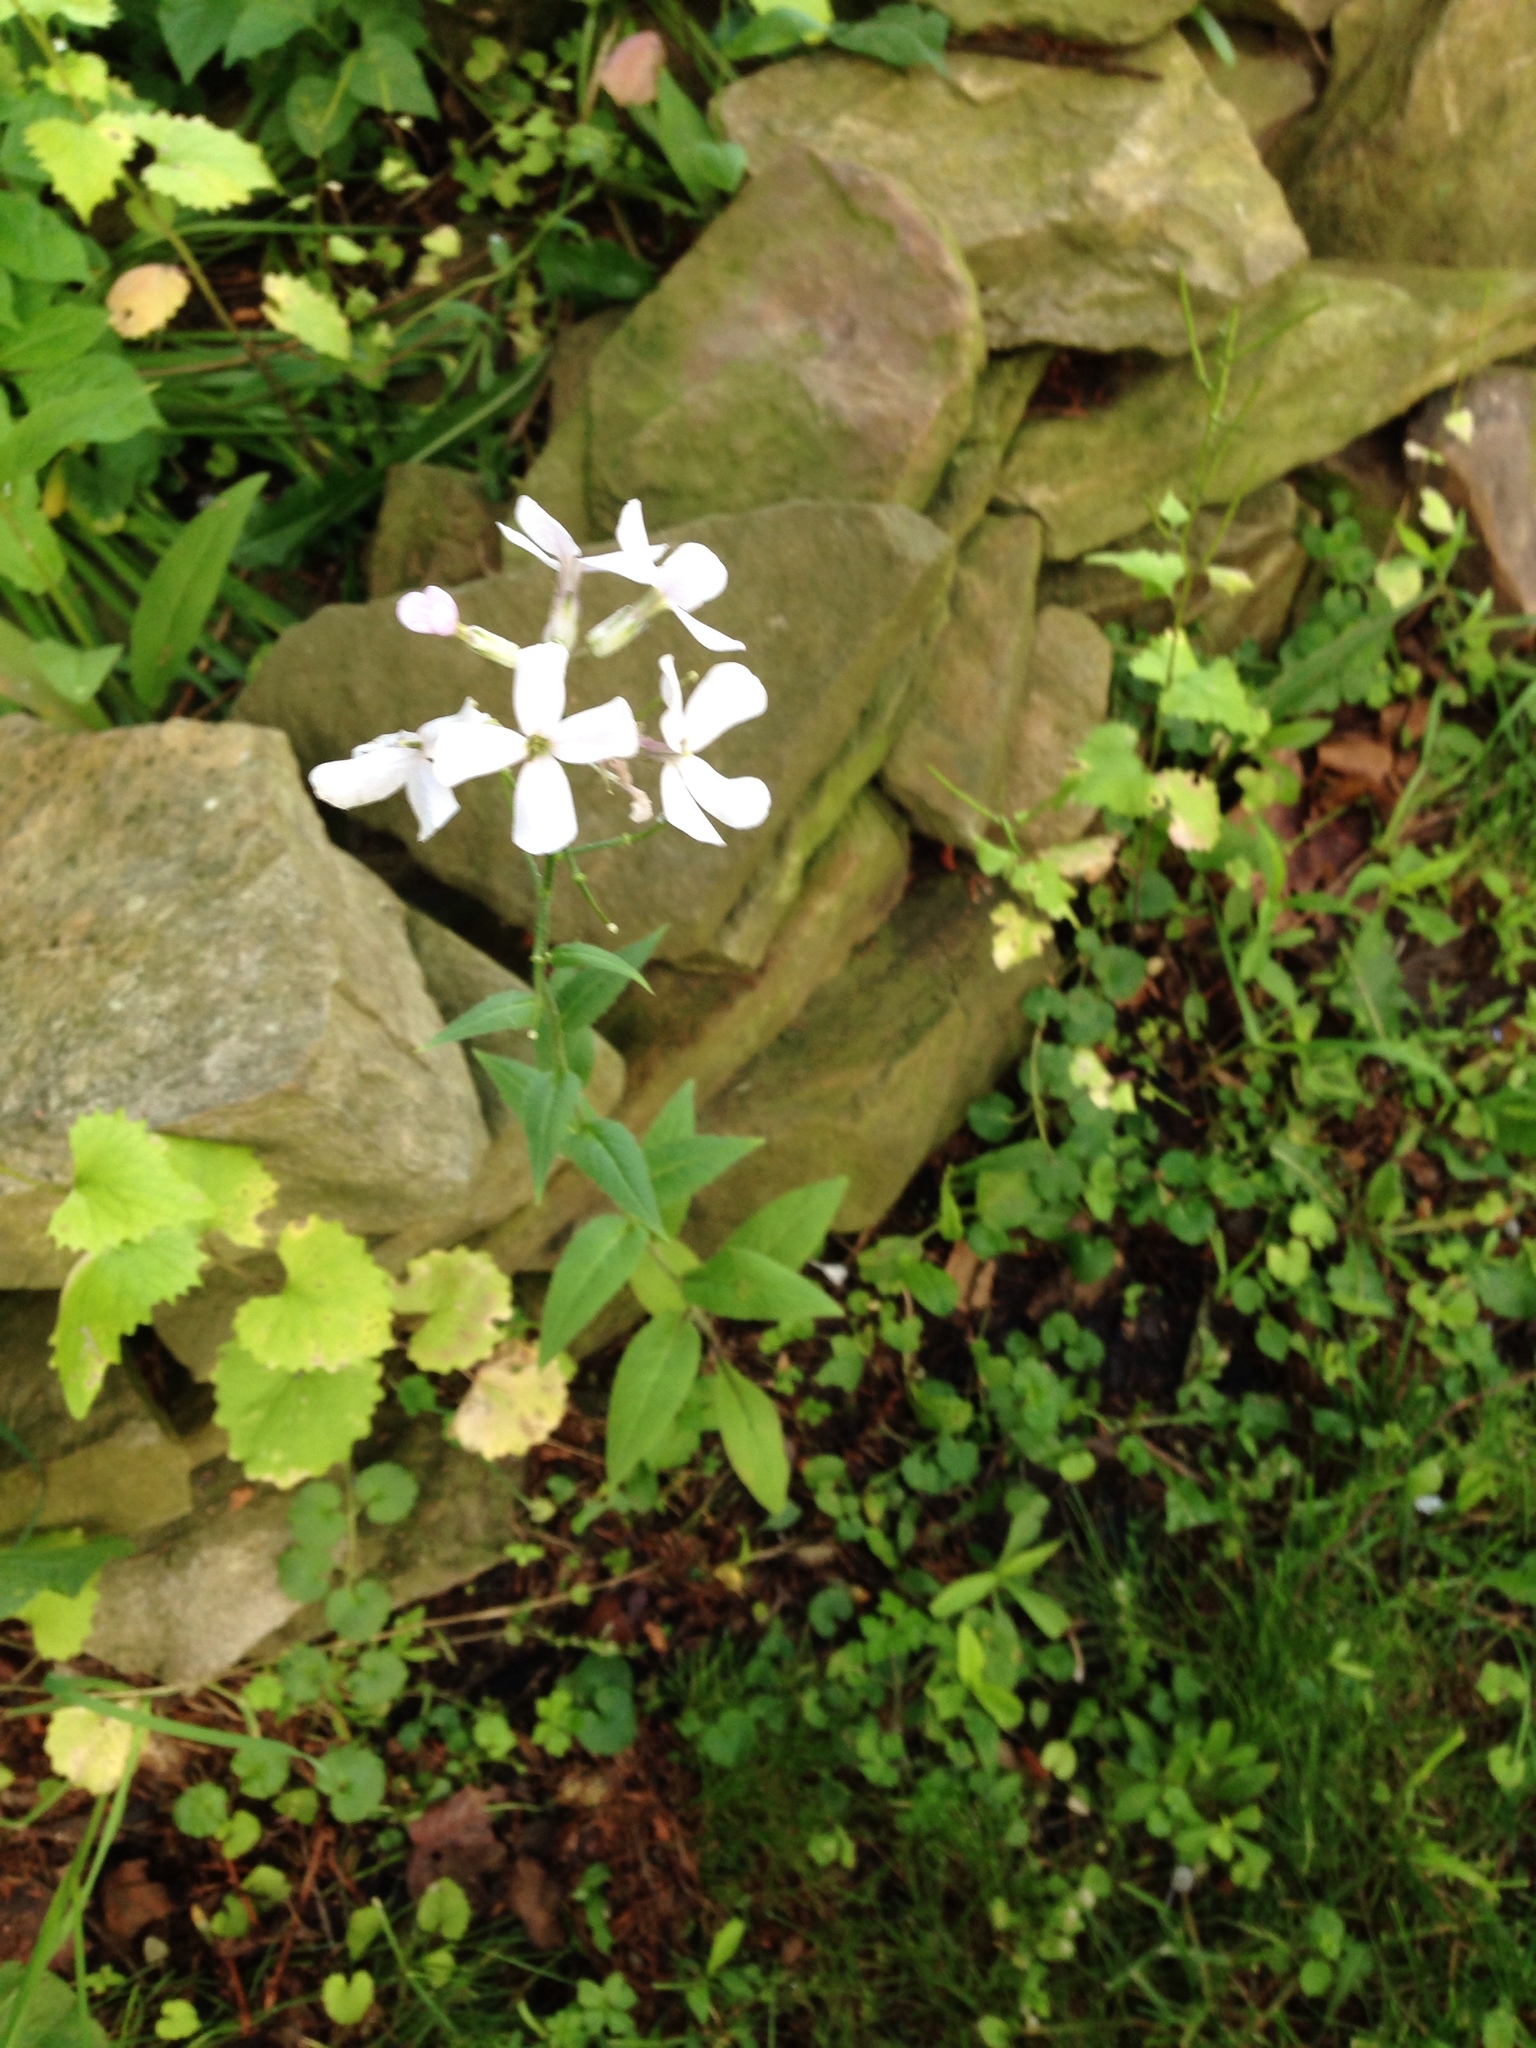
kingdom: Plantae
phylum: Tracheophyta
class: Magnoliopsida
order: Brassicales
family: Brassicaceae
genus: Hesperis
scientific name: Hesperis matronalis
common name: Dame's-violet
